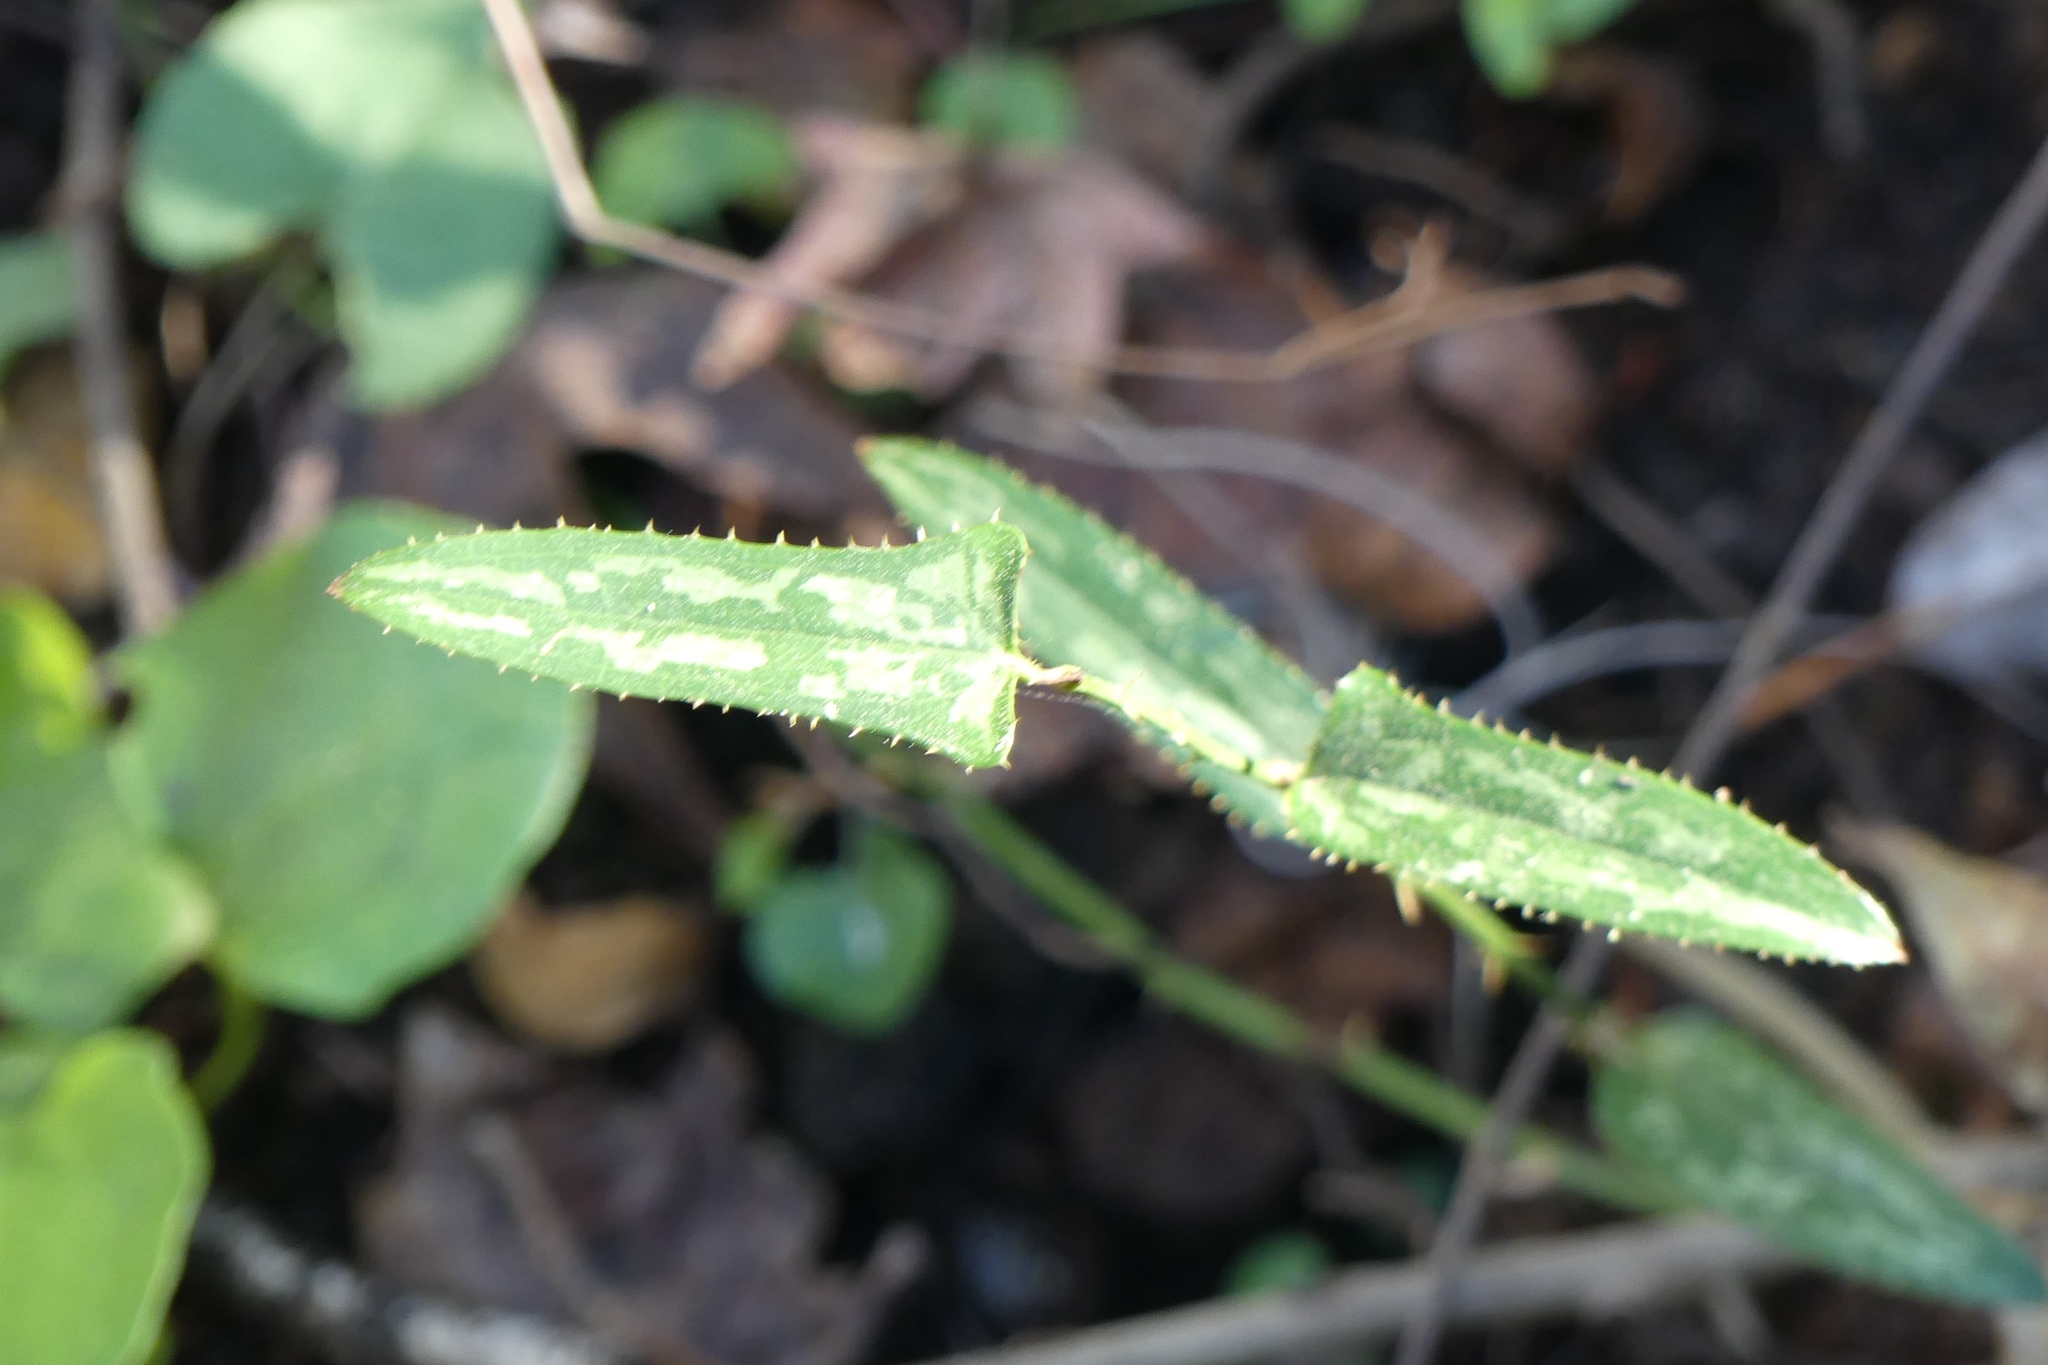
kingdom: Plantae
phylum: Tracheophyta
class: Liliopsida
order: Liliales
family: Smilacaceae
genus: Smilax
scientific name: Smilax bona-nox
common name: Catbrier
